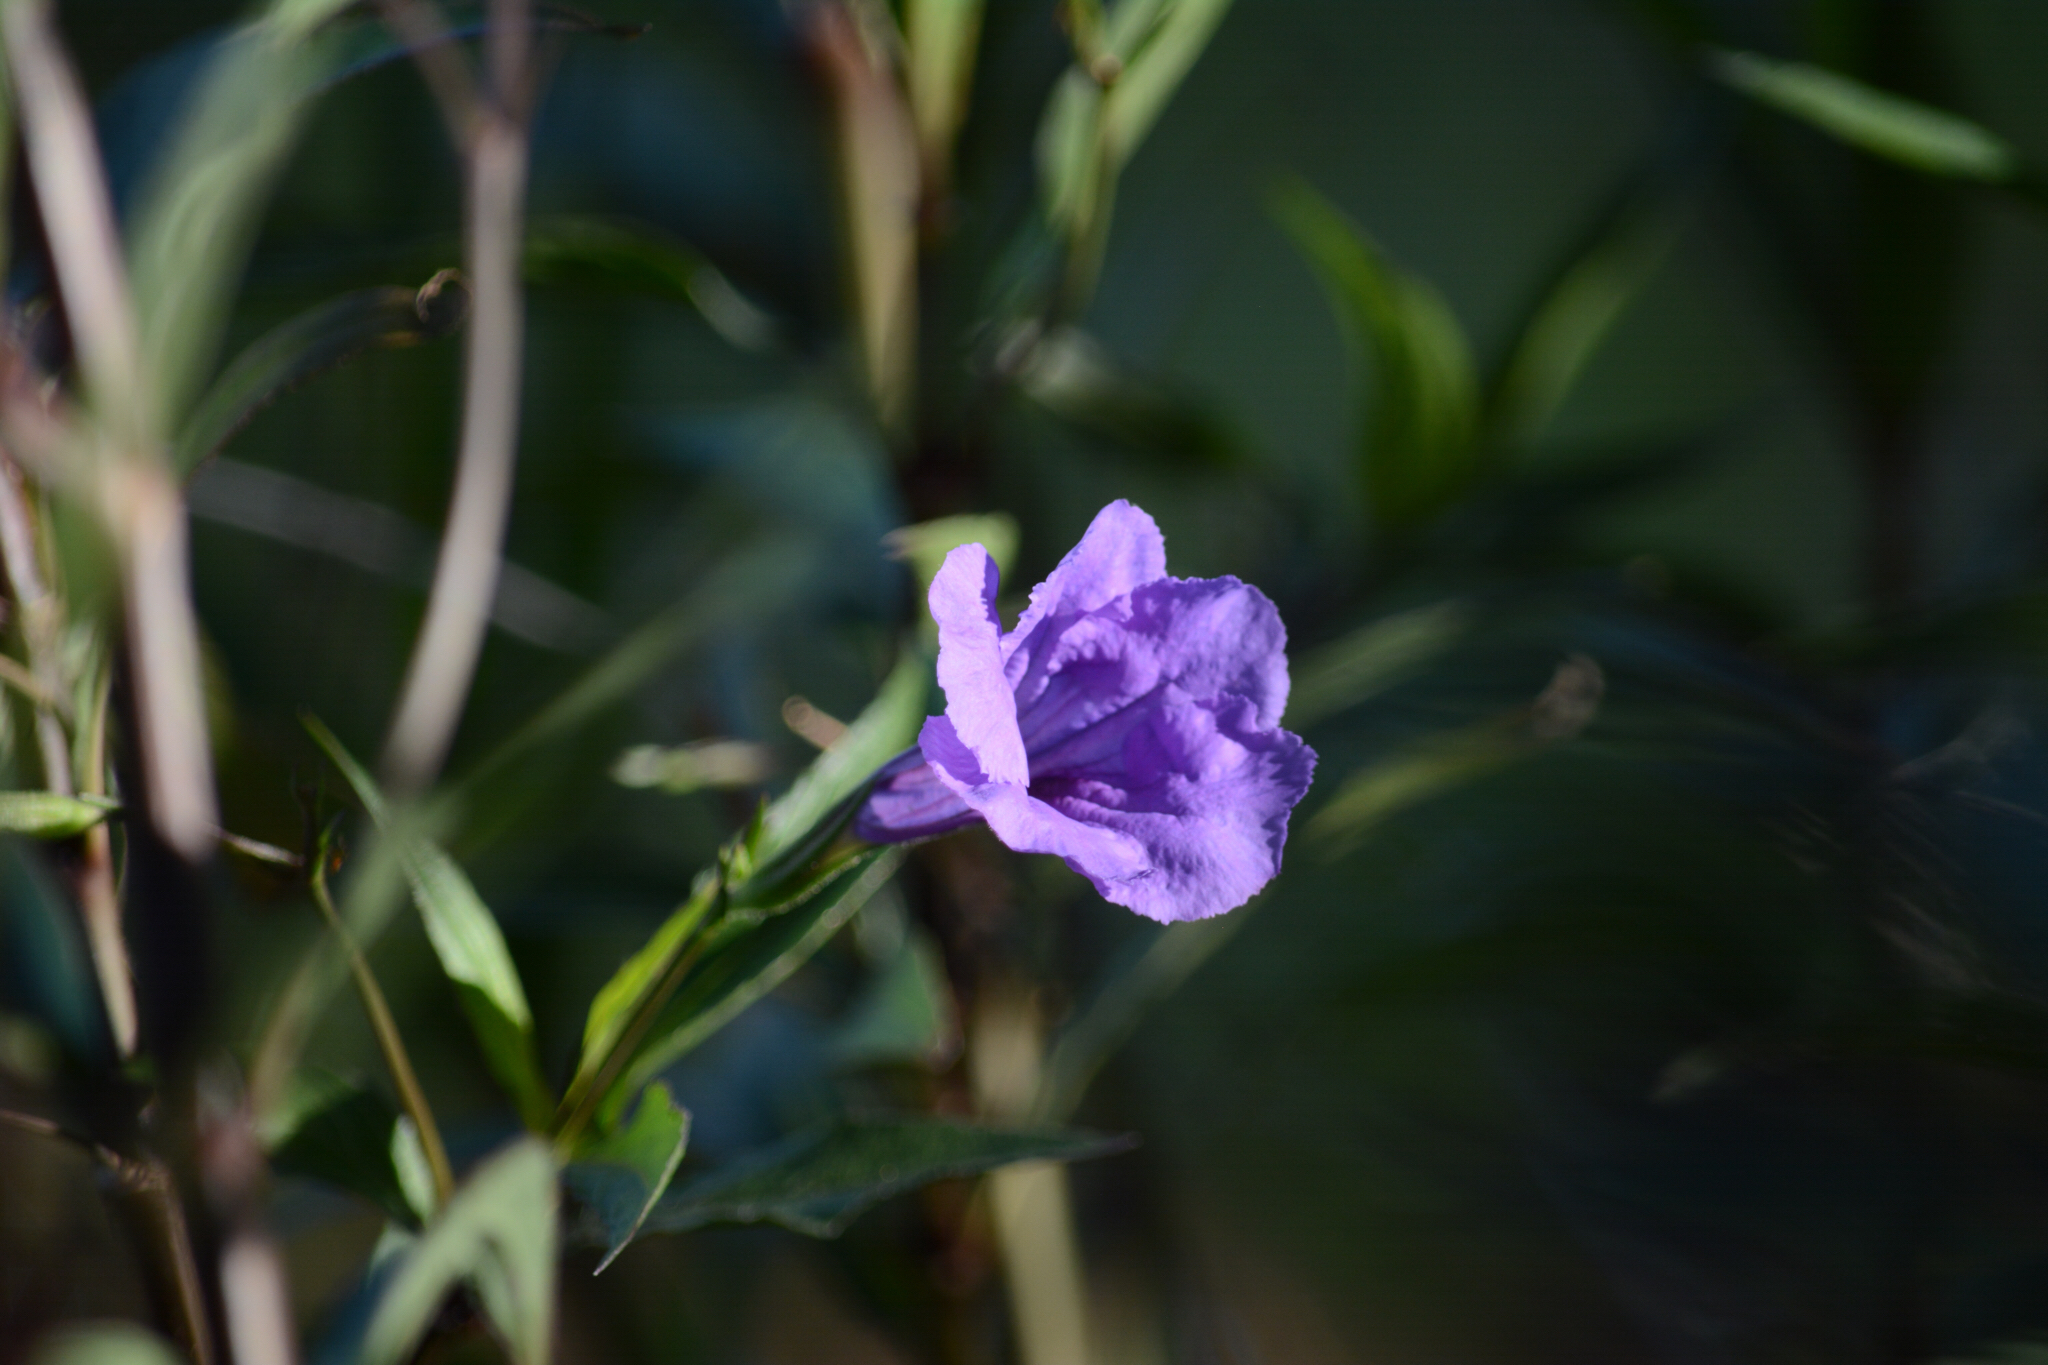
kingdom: Plantae
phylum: Tracheophyta
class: Magnoliopsida
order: Lamiales
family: Acanthaceae
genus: Ruellia
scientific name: Ruellia simplex
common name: Softseed wild petunia
